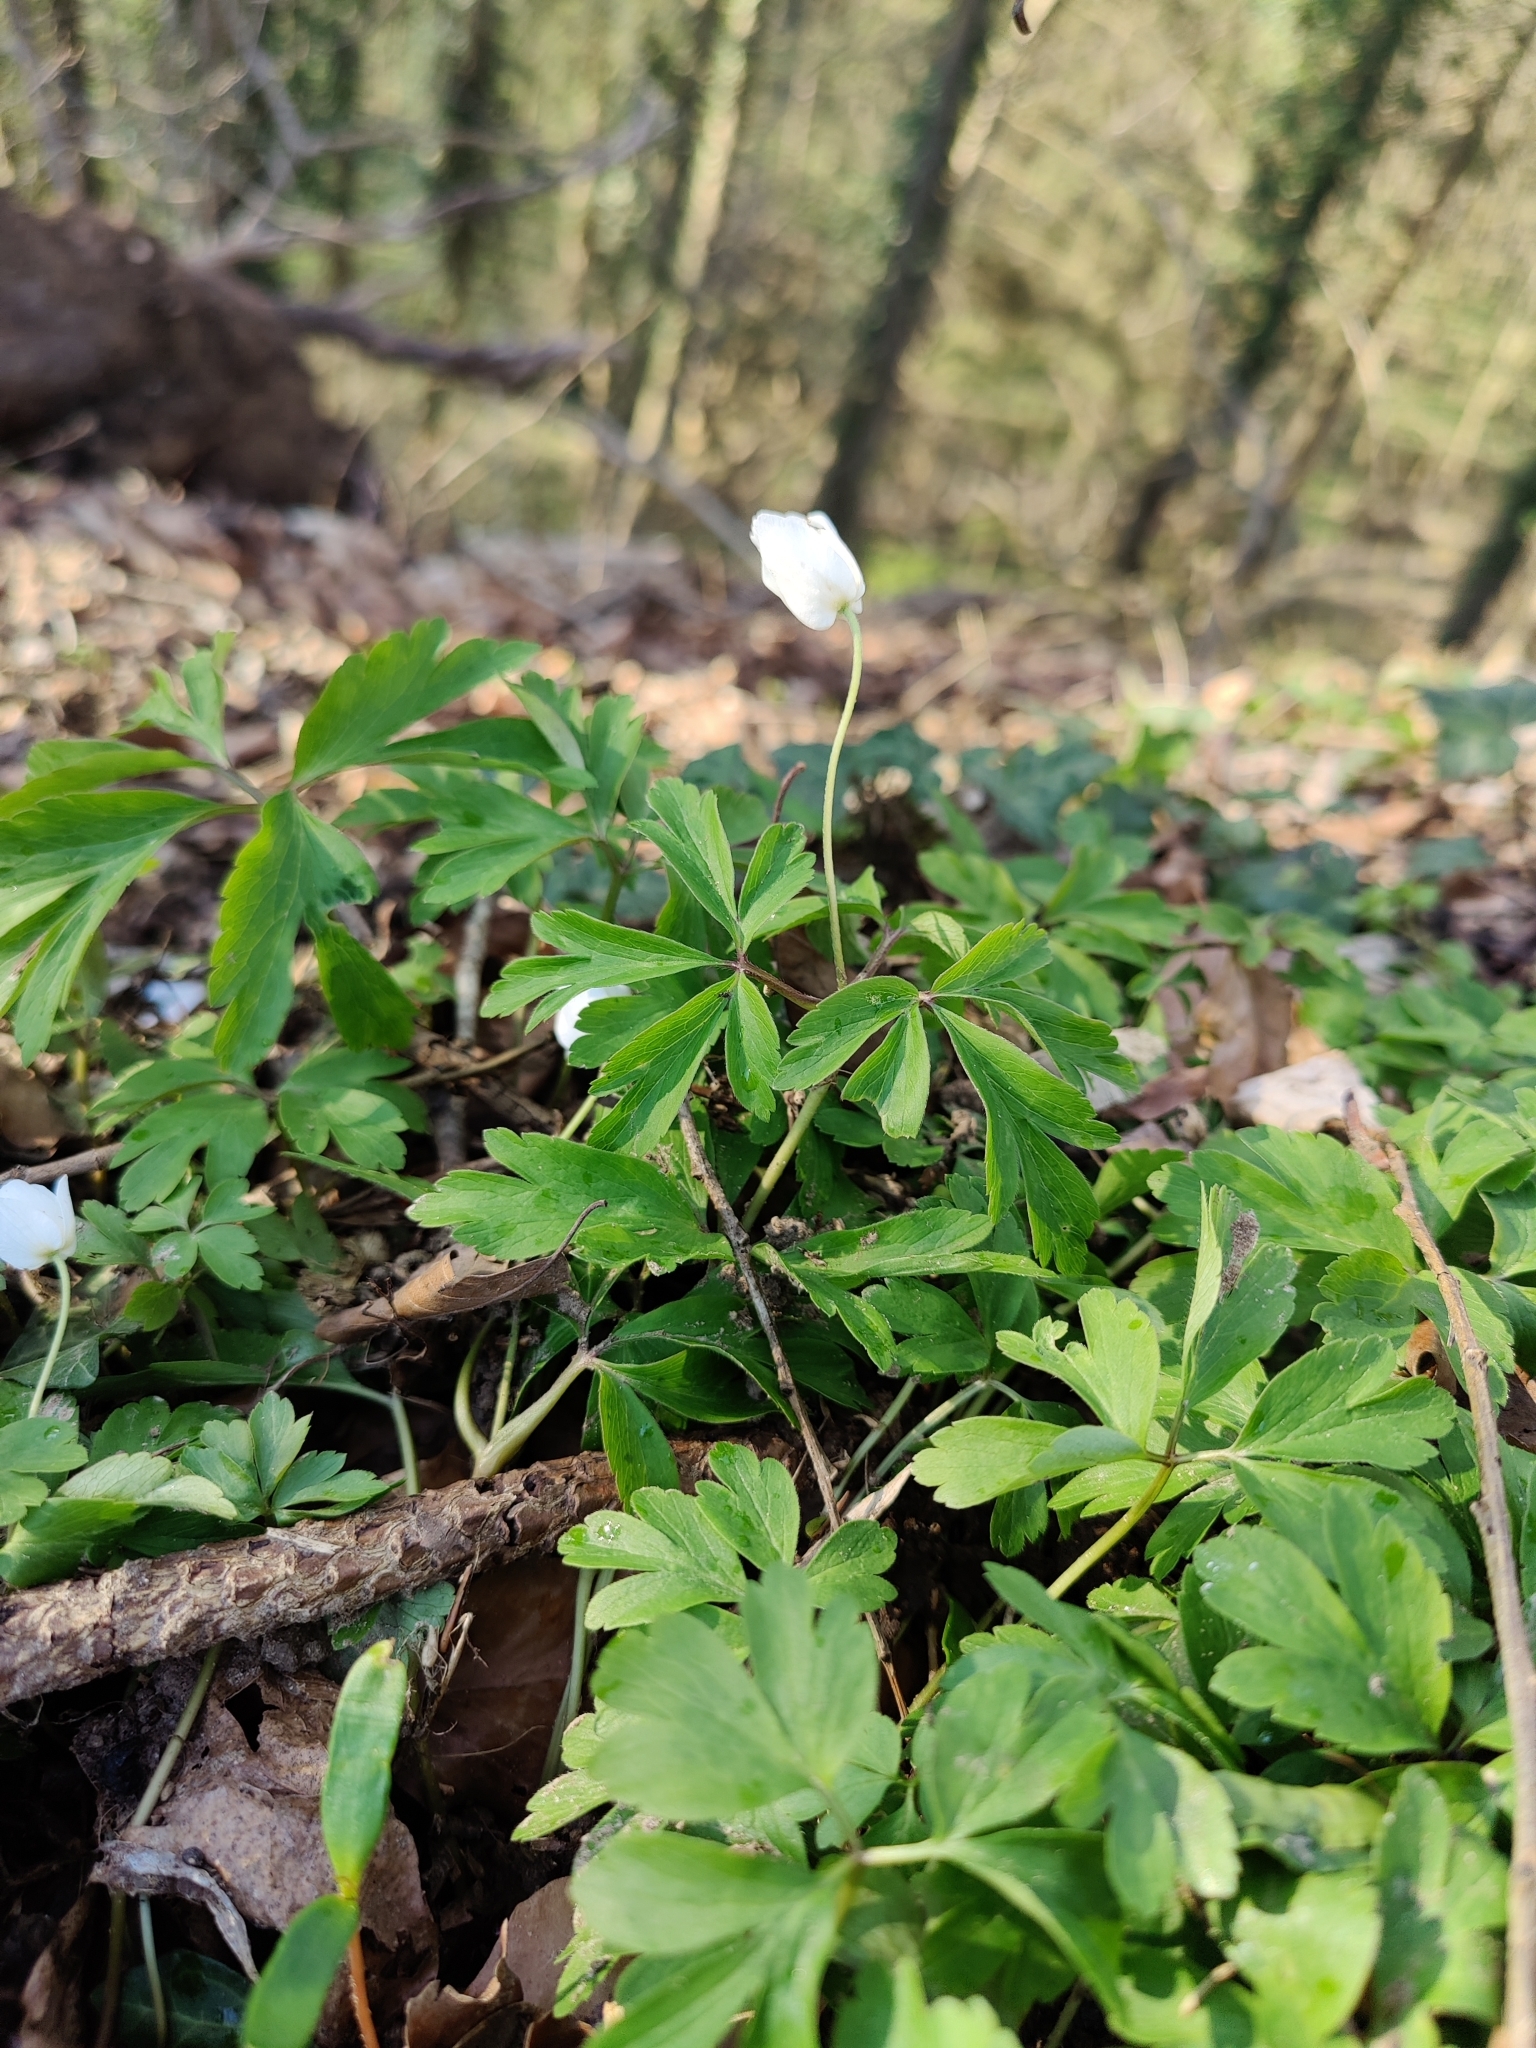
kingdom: Plantae
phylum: Tracheophyta
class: Magnoliopsida
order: Ranunculales
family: Ranunculaceae
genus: Anemone
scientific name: Anemone nemorosa
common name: Wood anemone
